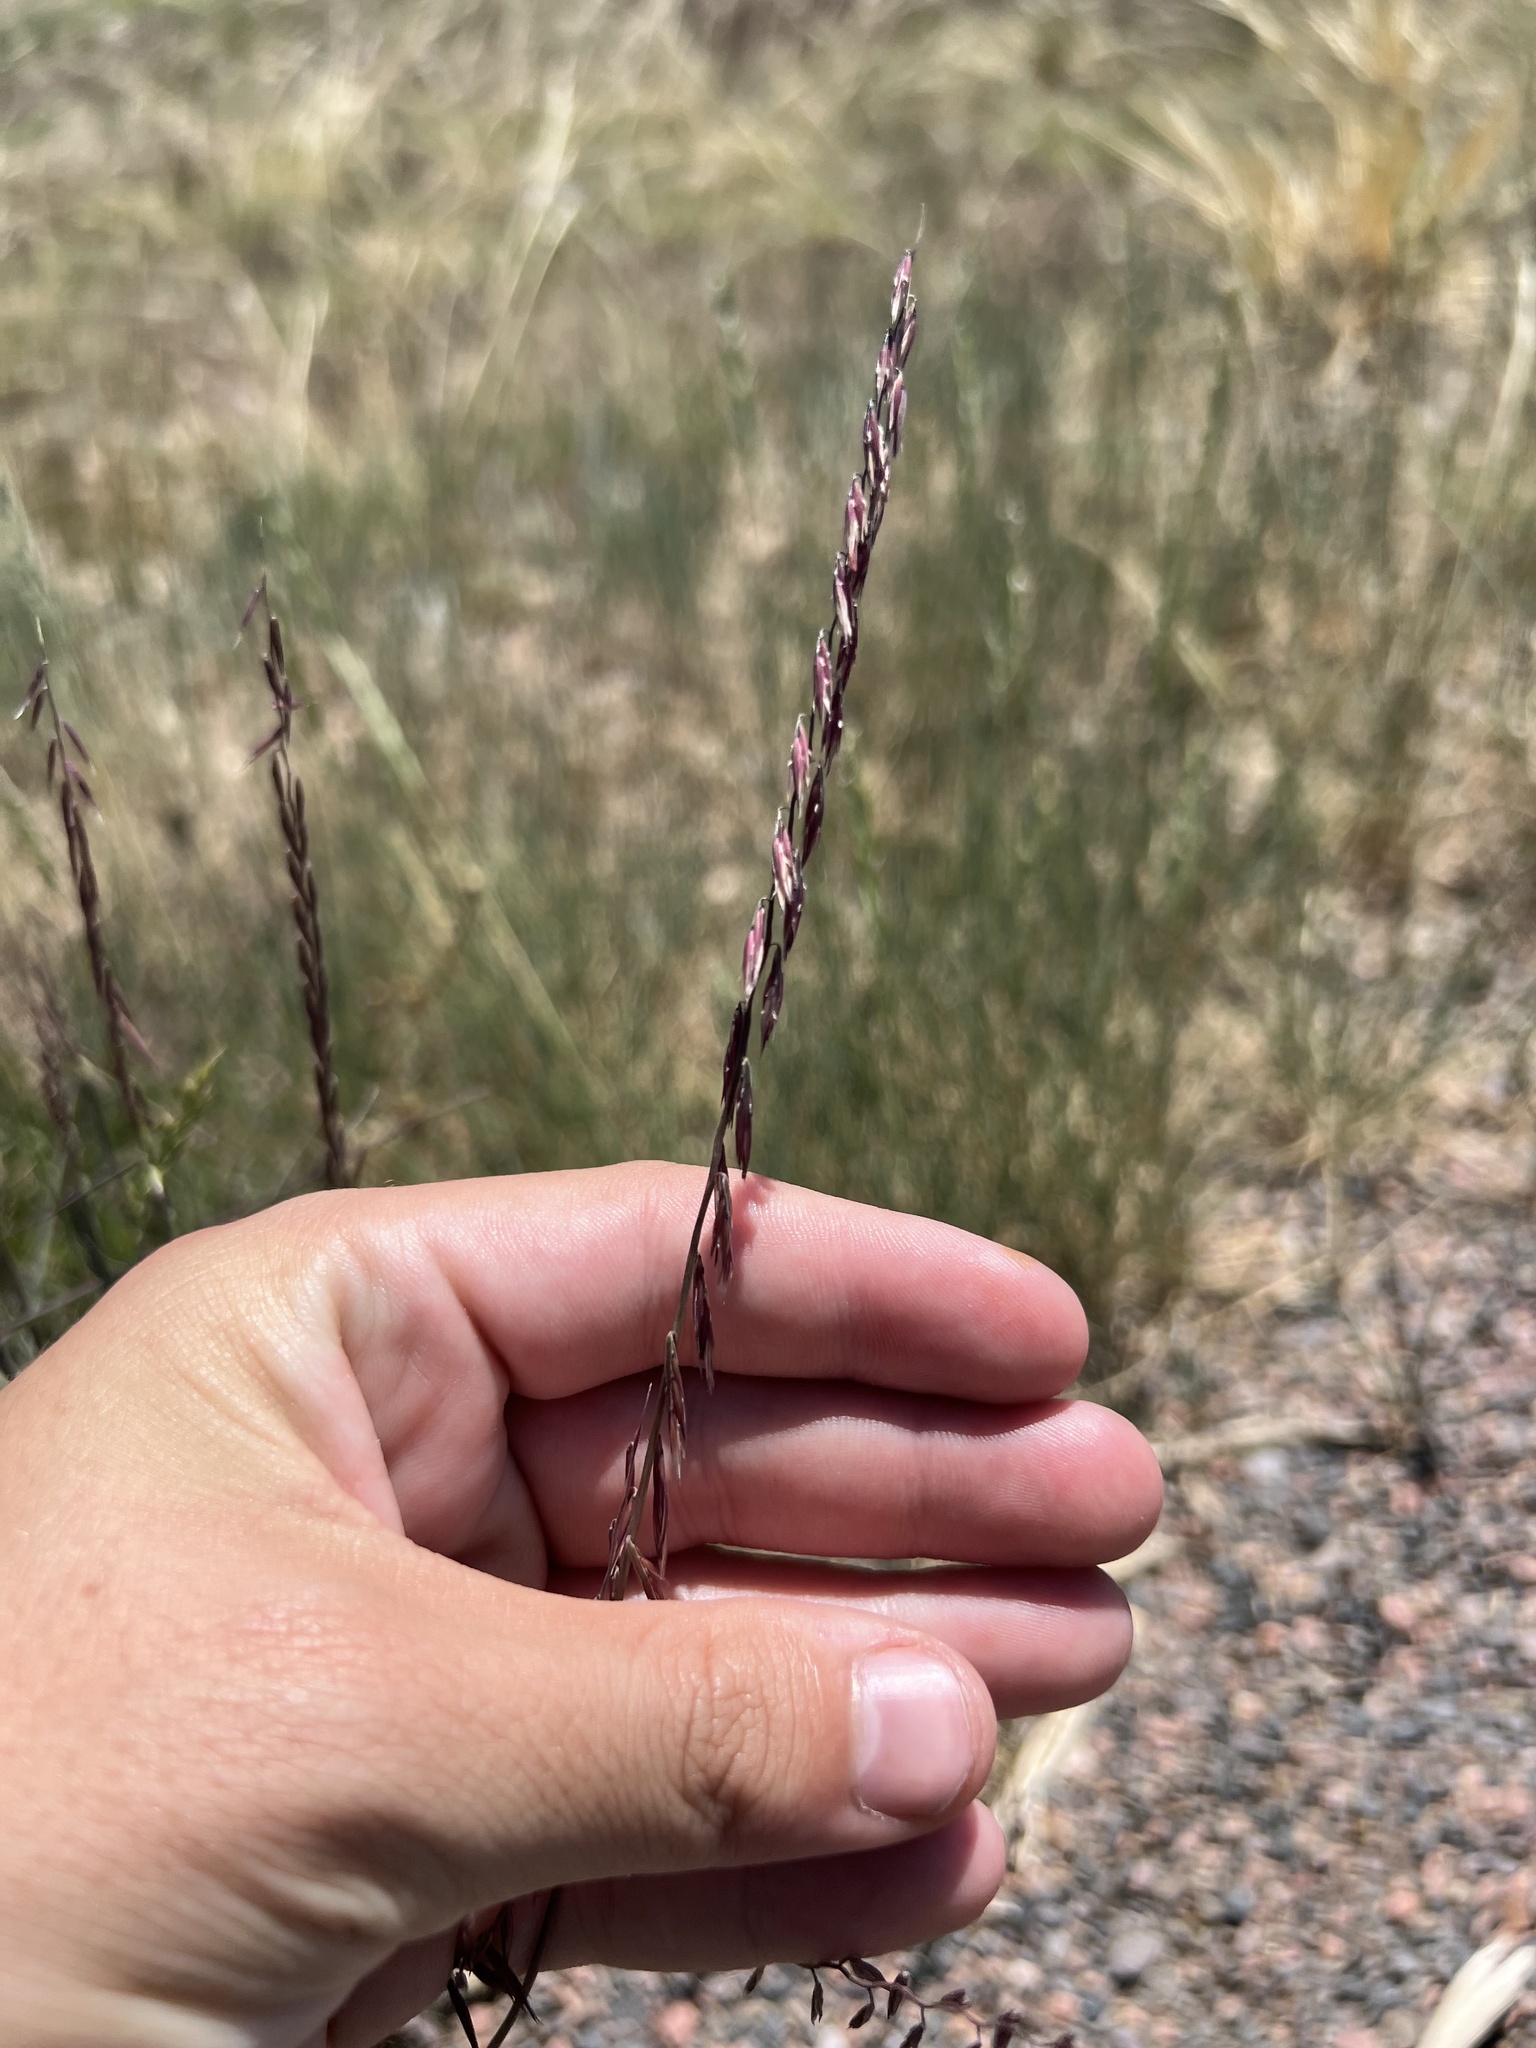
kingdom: Plantae
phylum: Tracheophyta
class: Liliopsida
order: Poales
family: Poaceae
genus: Bouteloua
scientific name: Bouteloua curtipendula
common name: Side-oats grama
